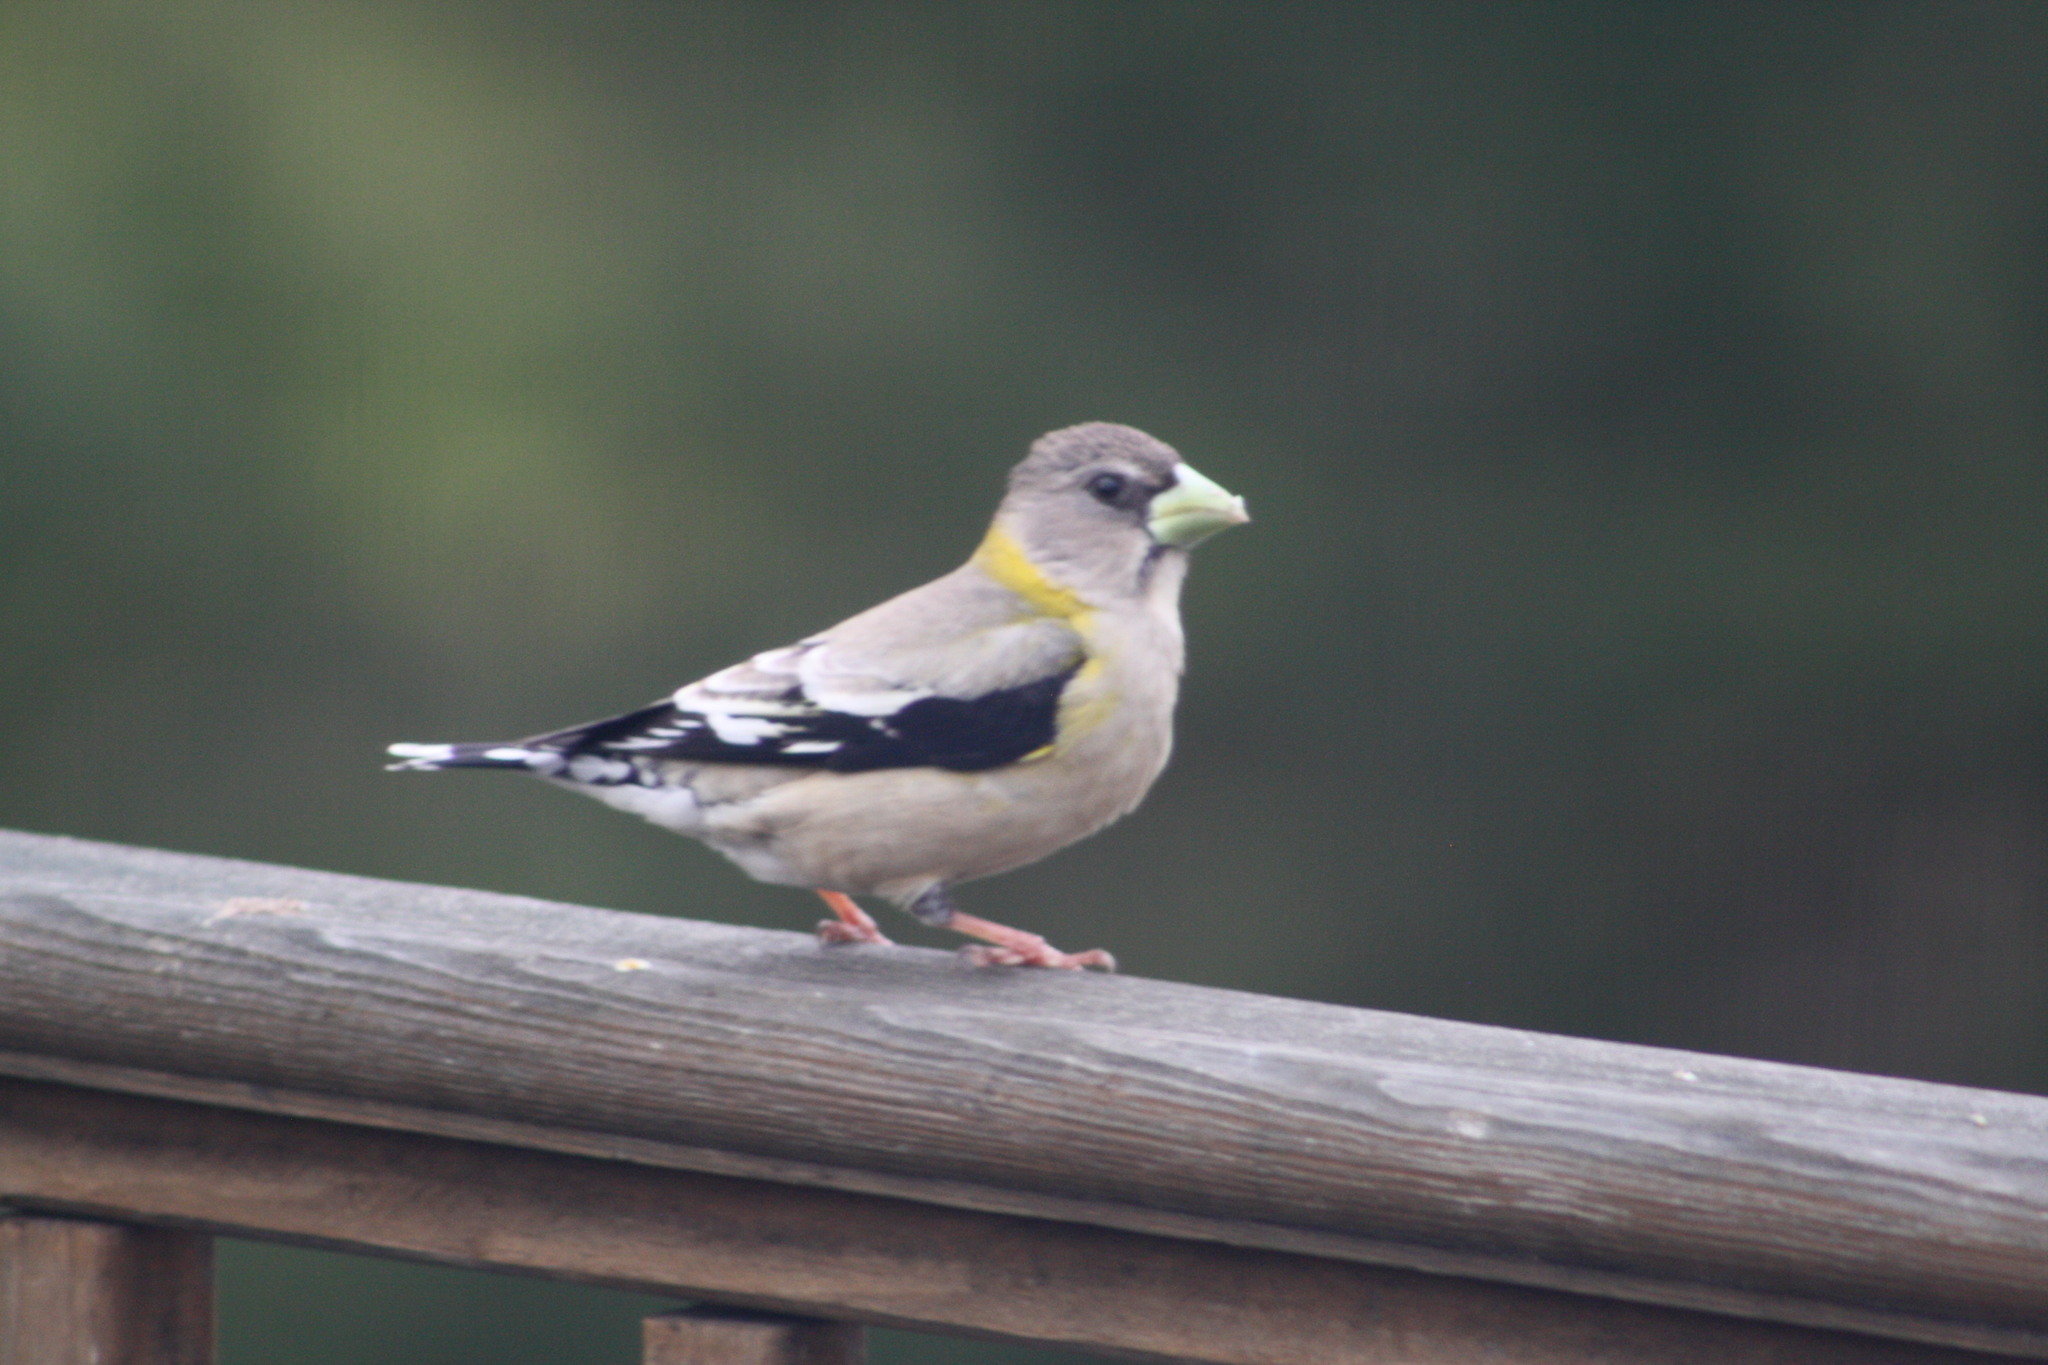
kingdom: Animalia
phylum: Chordata
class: Aves
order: Passeriformes
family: Fringillidae
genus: Hesperiphona
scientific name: Hesperiphona vespertina
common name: Evening grosbeak
